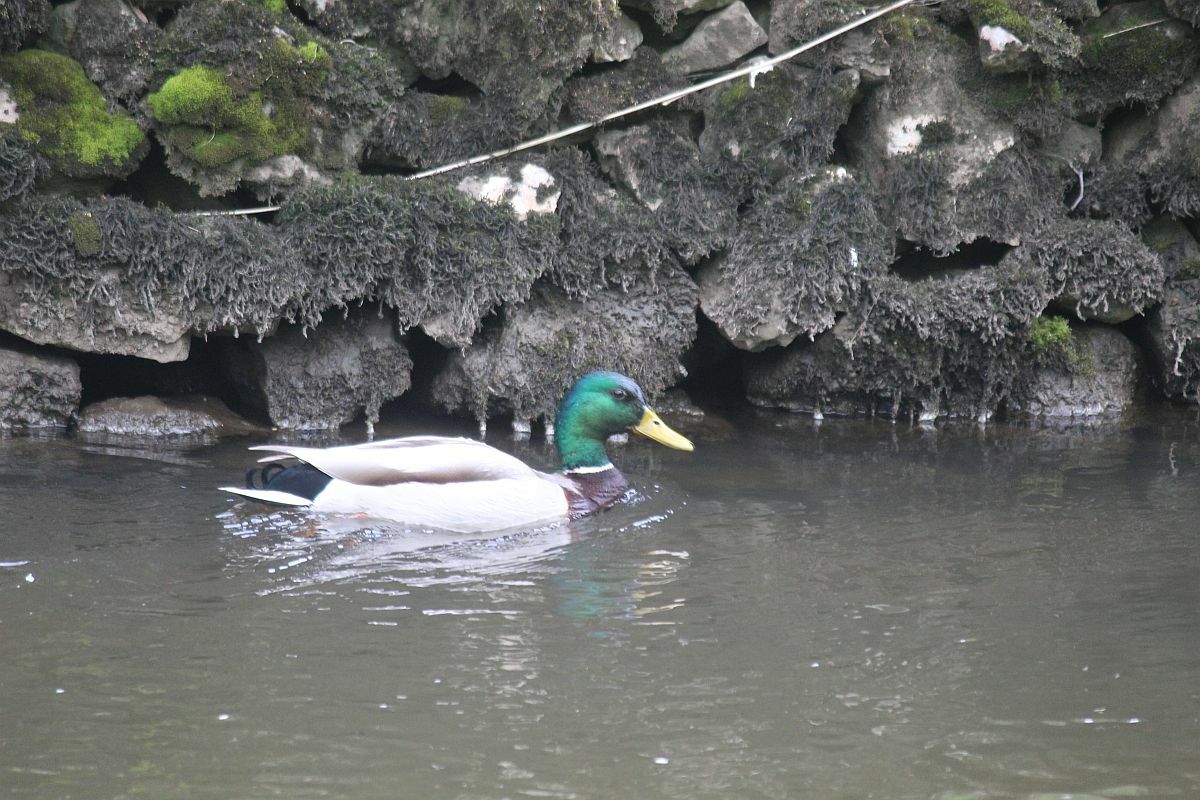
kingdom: Animalia
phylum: Chordata
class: Aves
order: Anseriformes
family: Anatidae
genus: Anas
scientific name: Anas platyrhynchos
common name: Mallard
